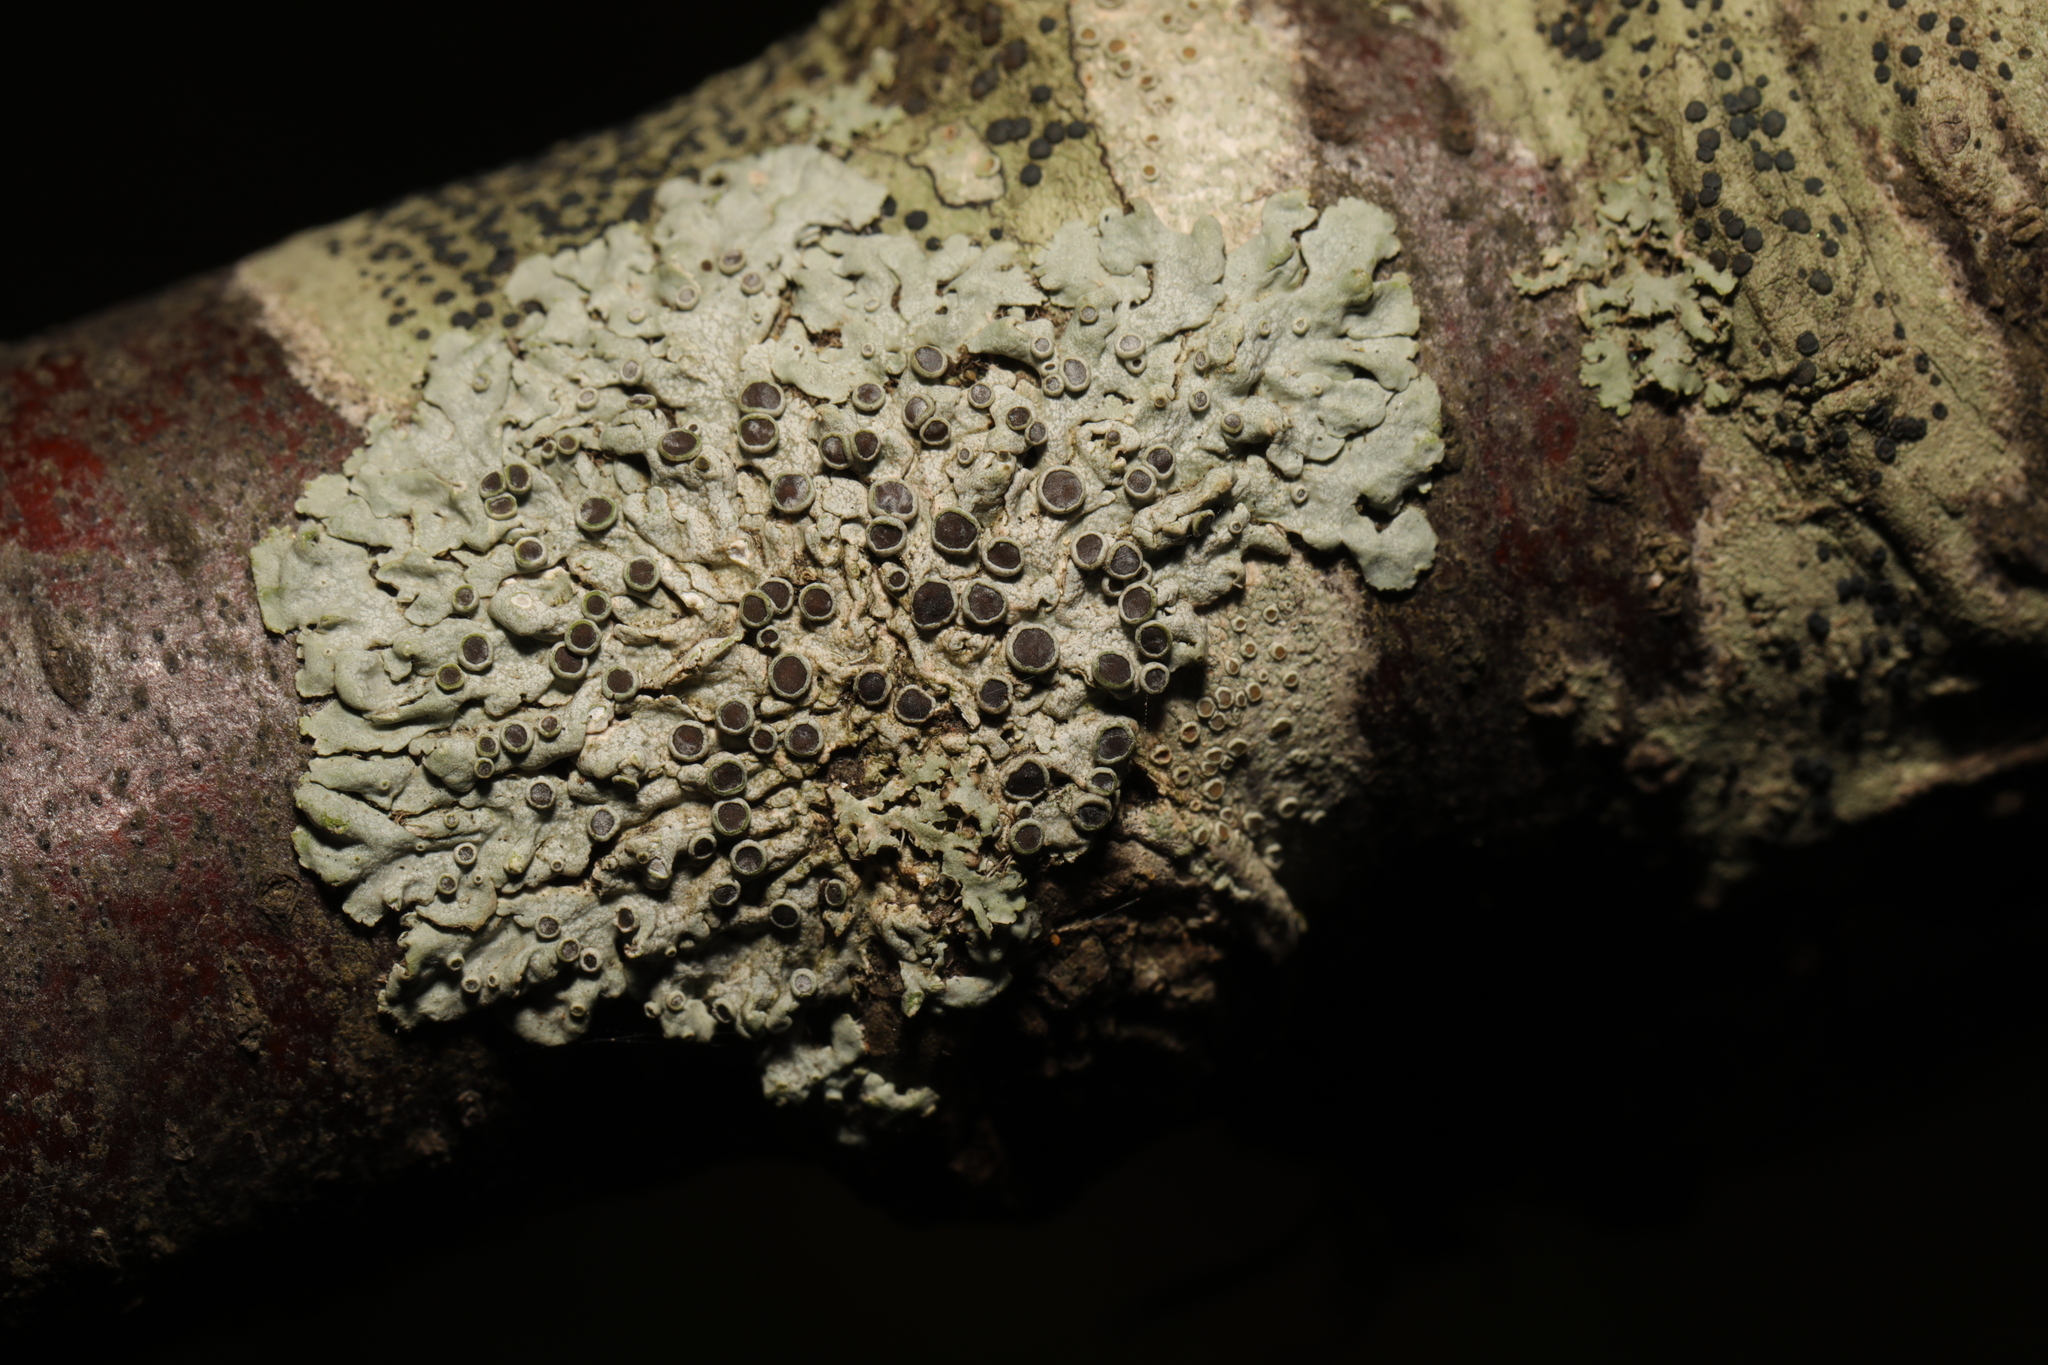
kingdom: Fungi
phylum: Ascomycota
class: Lecanoromycetes
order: Caliciales
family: Physciaceae
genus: Physcia
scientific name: Physcia aipolia
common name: Hoary rosette lichen
